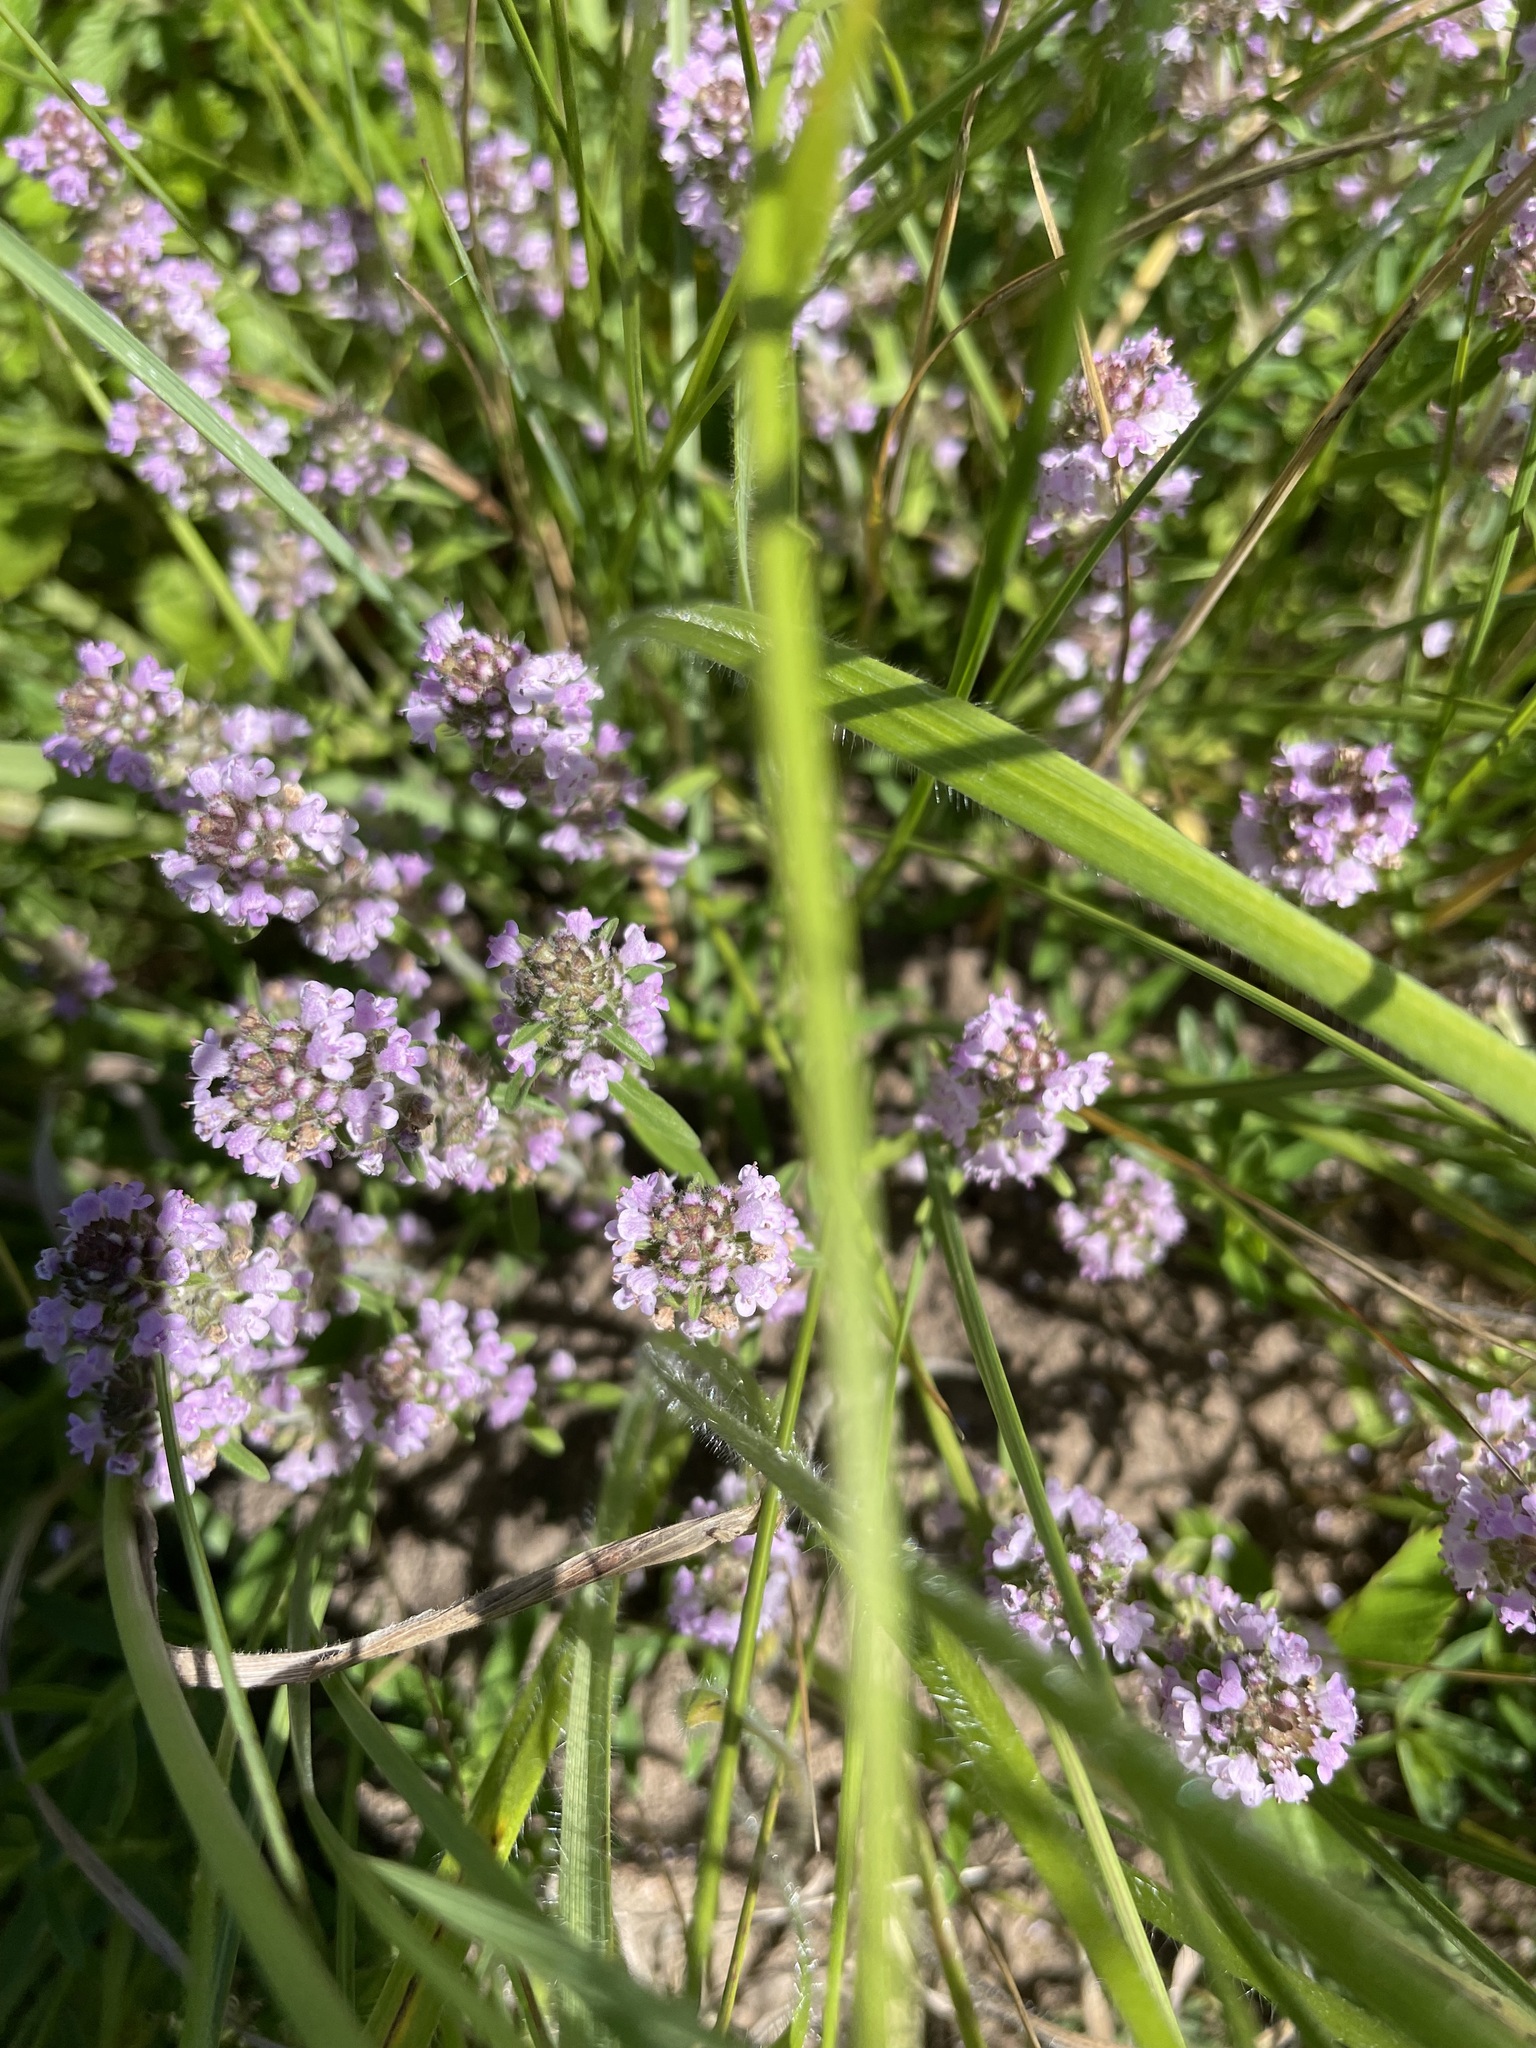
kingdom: Plantae
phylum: Tracheophyta
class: Magnoliopsida
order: Lamiales
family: Lamiaceae
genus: Thymus
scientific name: Thymus pannonicus
